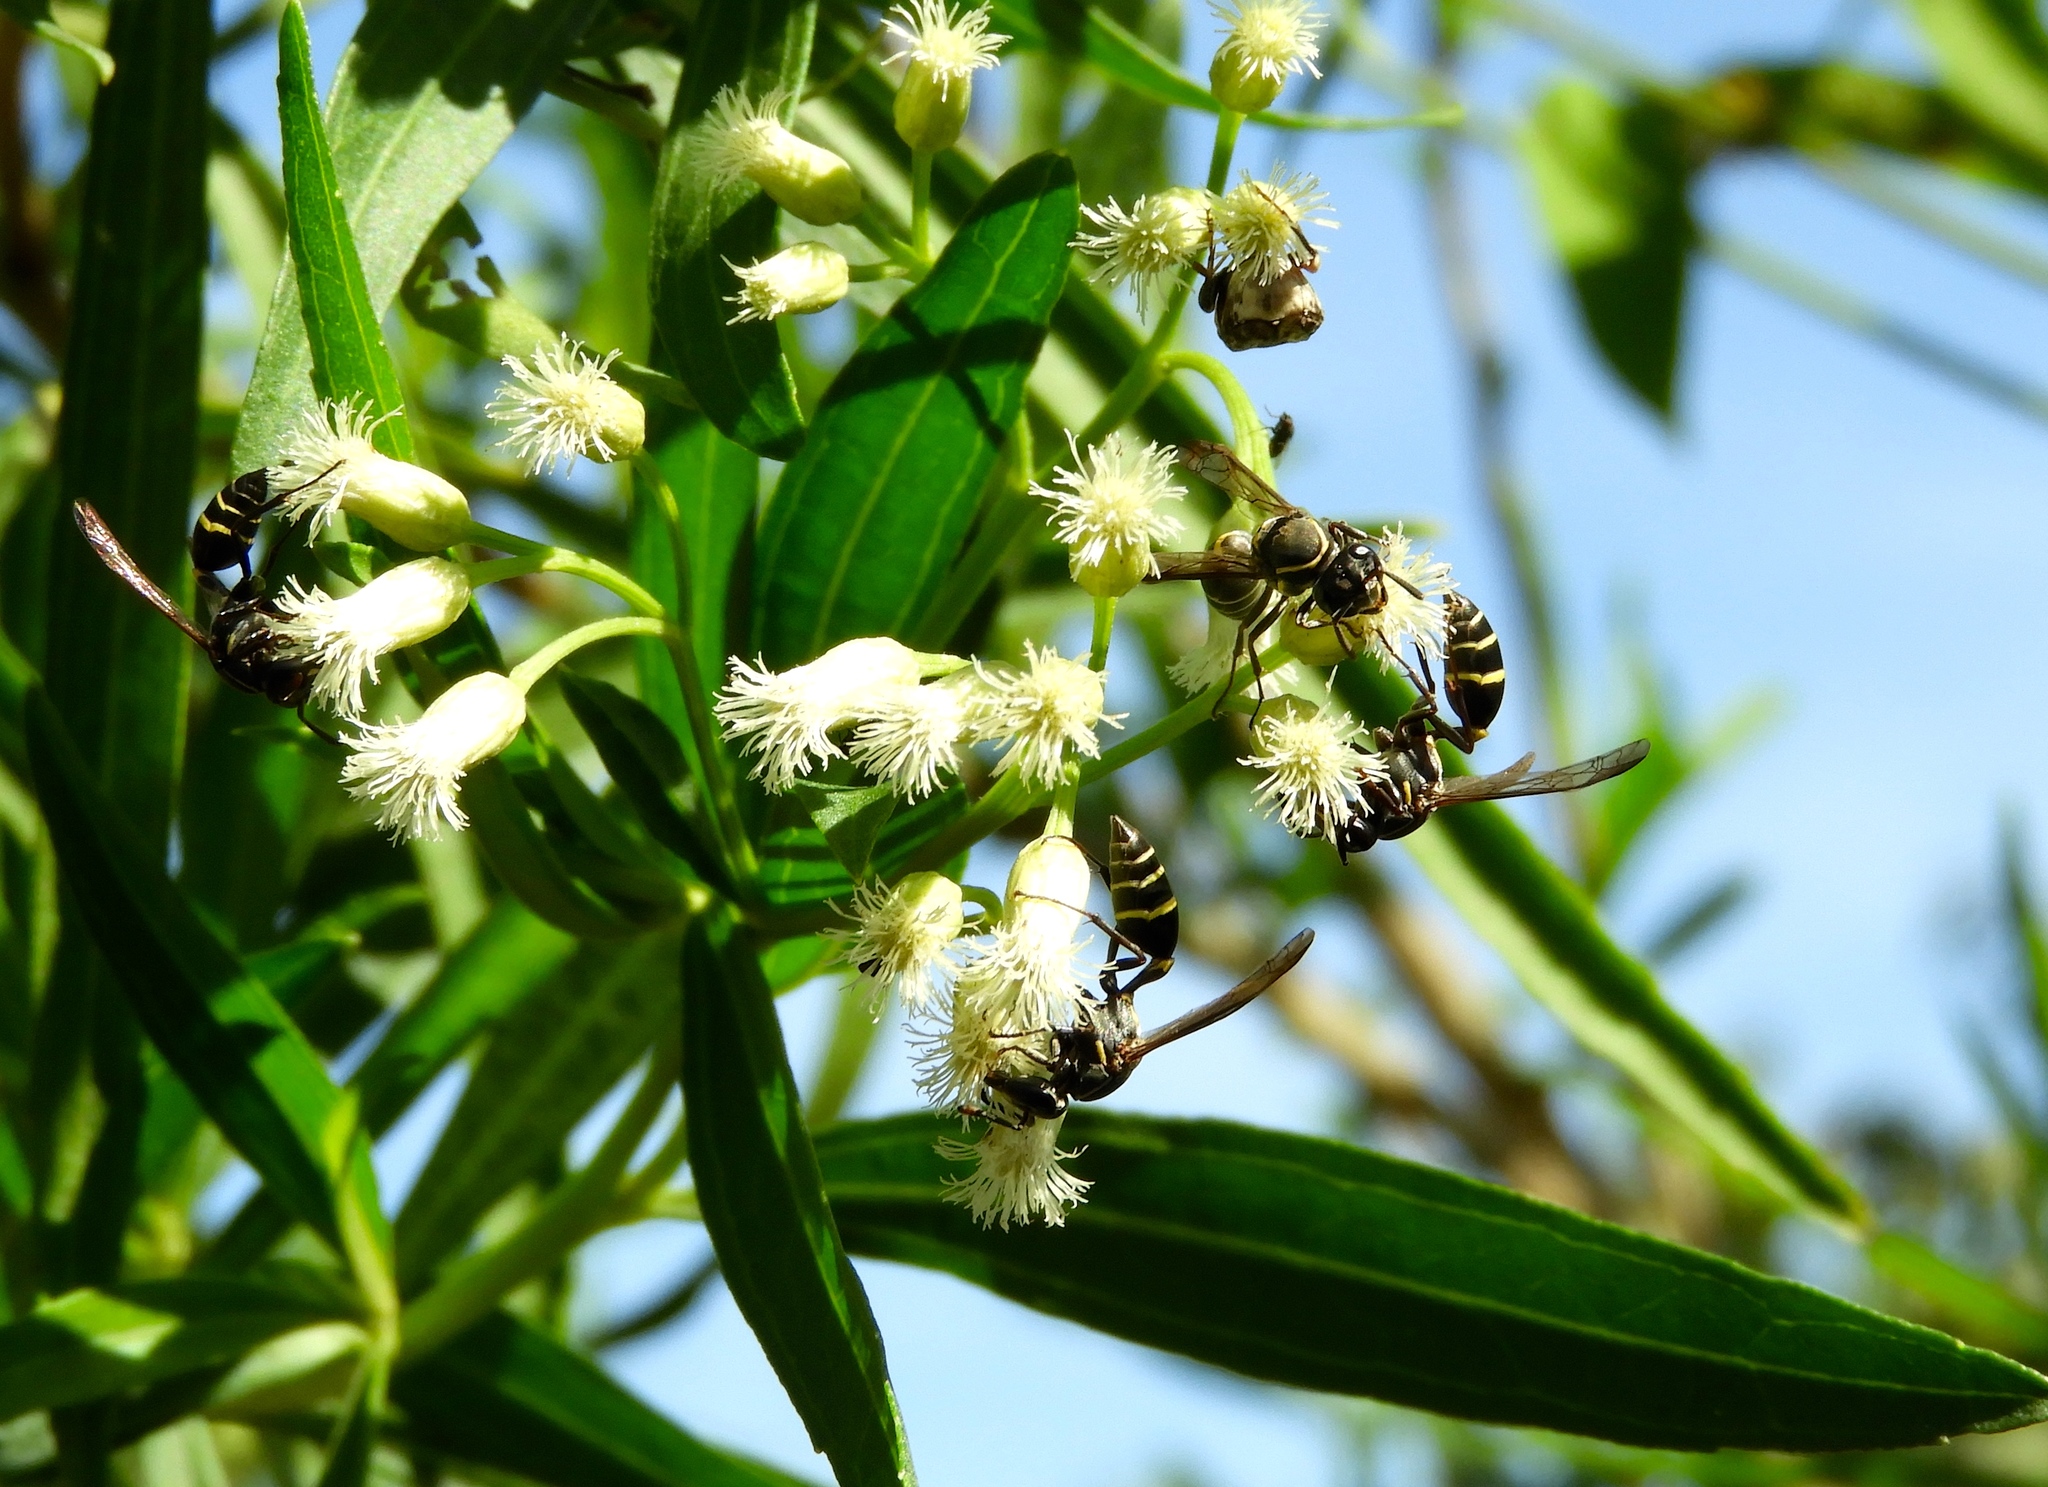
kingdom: Animalia
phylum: Arthropoda
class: Insecta
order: Hymenoptera
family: Tiphiidae
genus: Myzinum
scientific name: Myzinum
